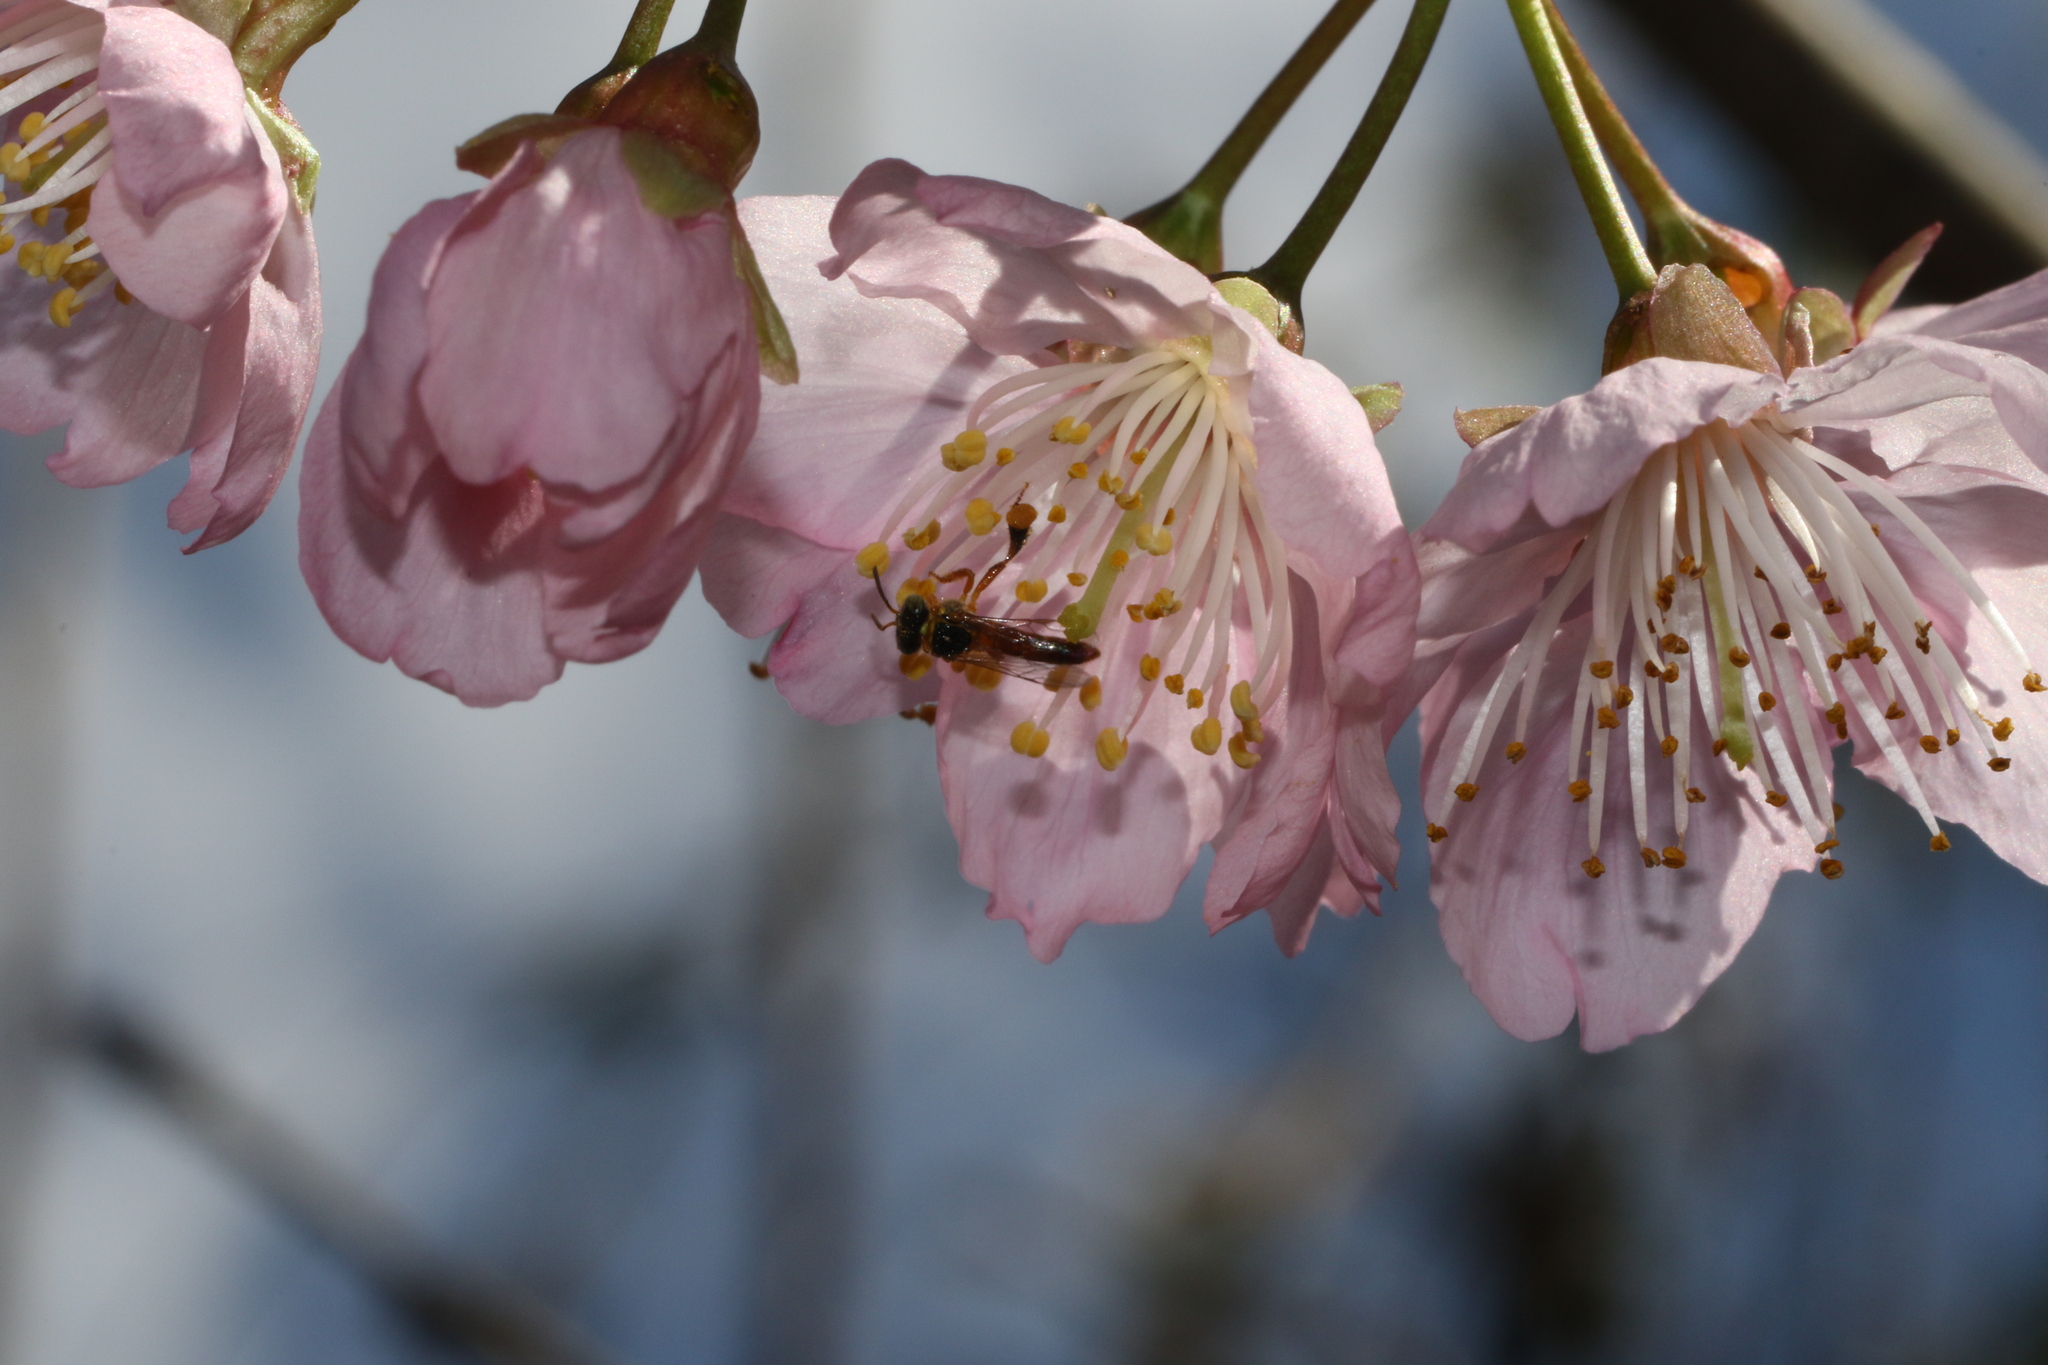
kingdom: Animalia
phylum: Arthropoda
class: Insecta
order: Hymenoptera
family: Apidae
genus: Tetragonisca
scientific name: Tetragonisca angustula
